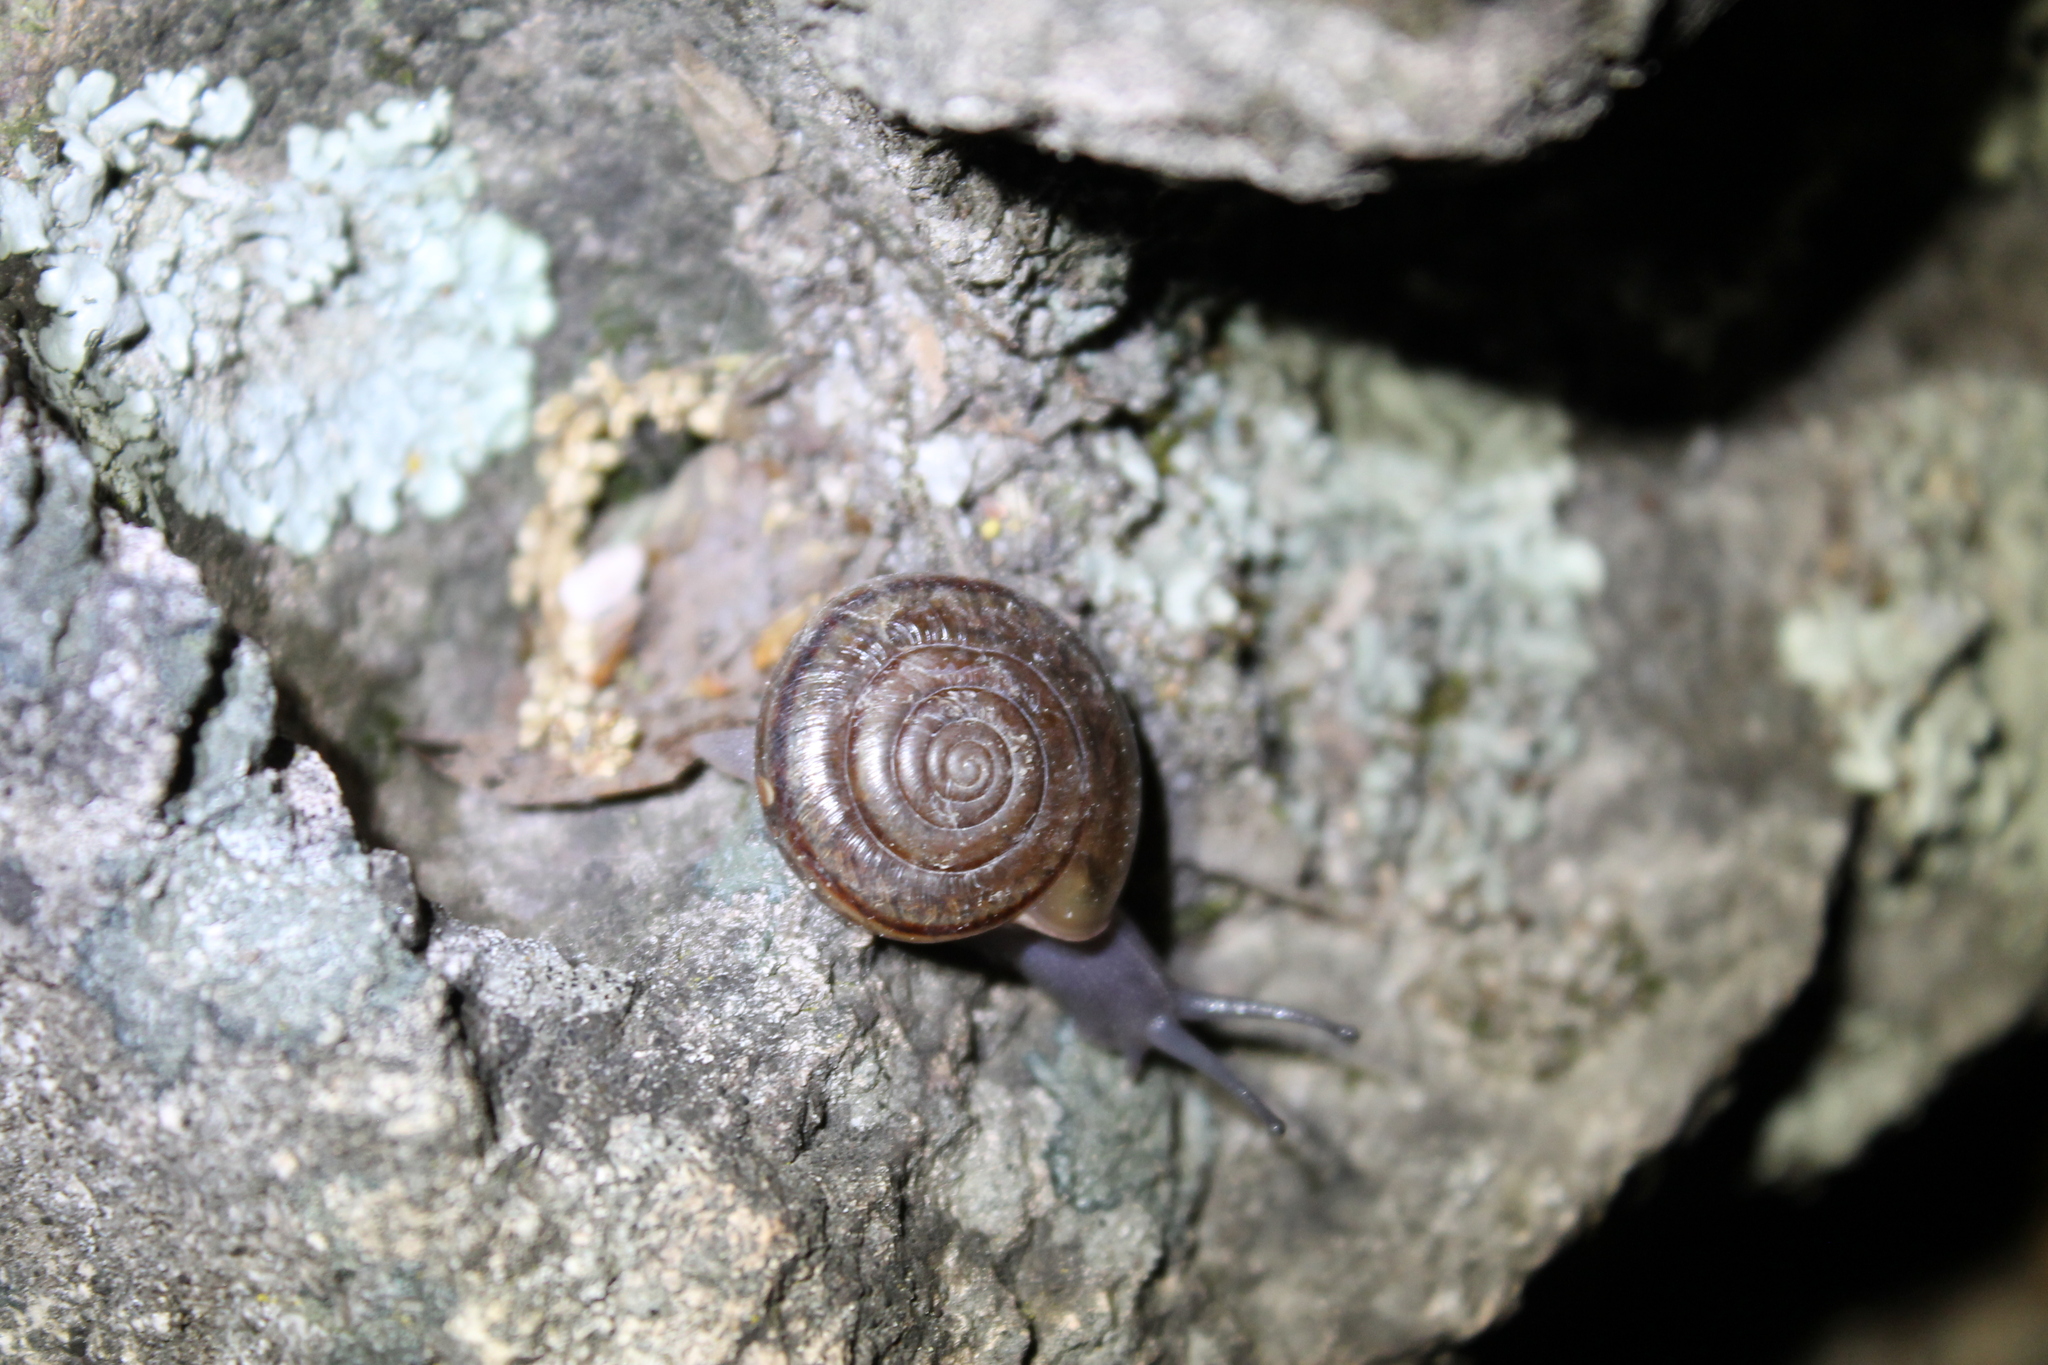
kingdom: Animalia
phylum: Mollusca
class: Gastropoda
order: Stylommatophora
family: Xanthonychidae
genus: Helminthoglypta
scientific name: Helminthoglypta benitoensis
